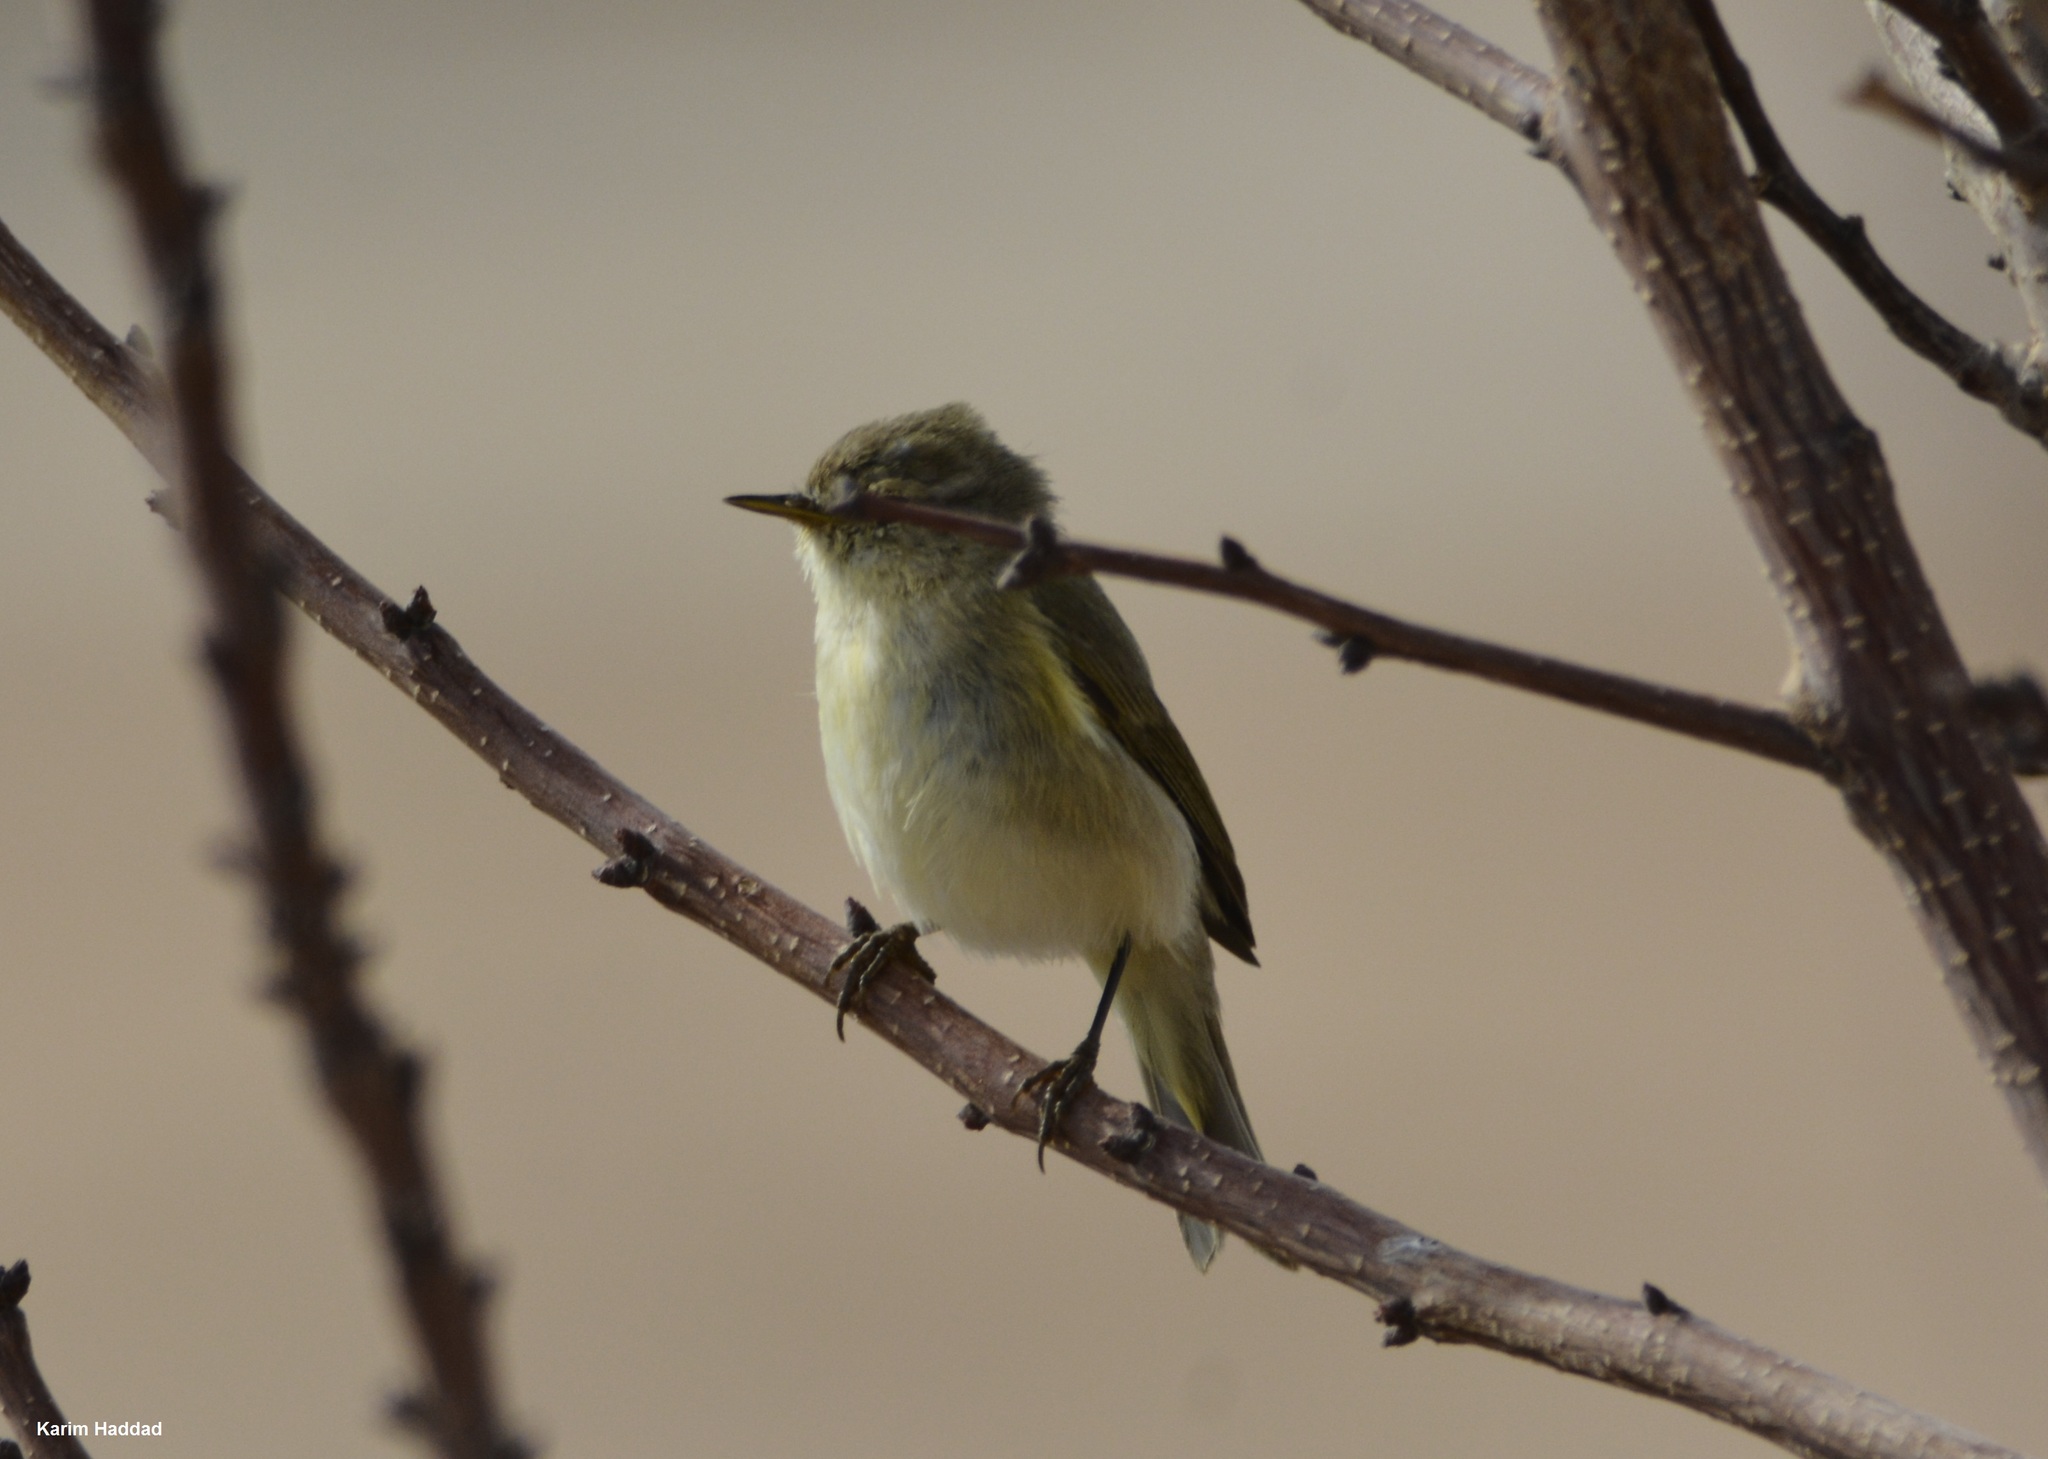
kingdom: Animalia
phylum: Chordata
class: Aves
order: Passeriformes
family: Phylloscopidae
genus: Phylloscopus
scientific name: Phylloscopus collybita
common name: Common chiffchaff
